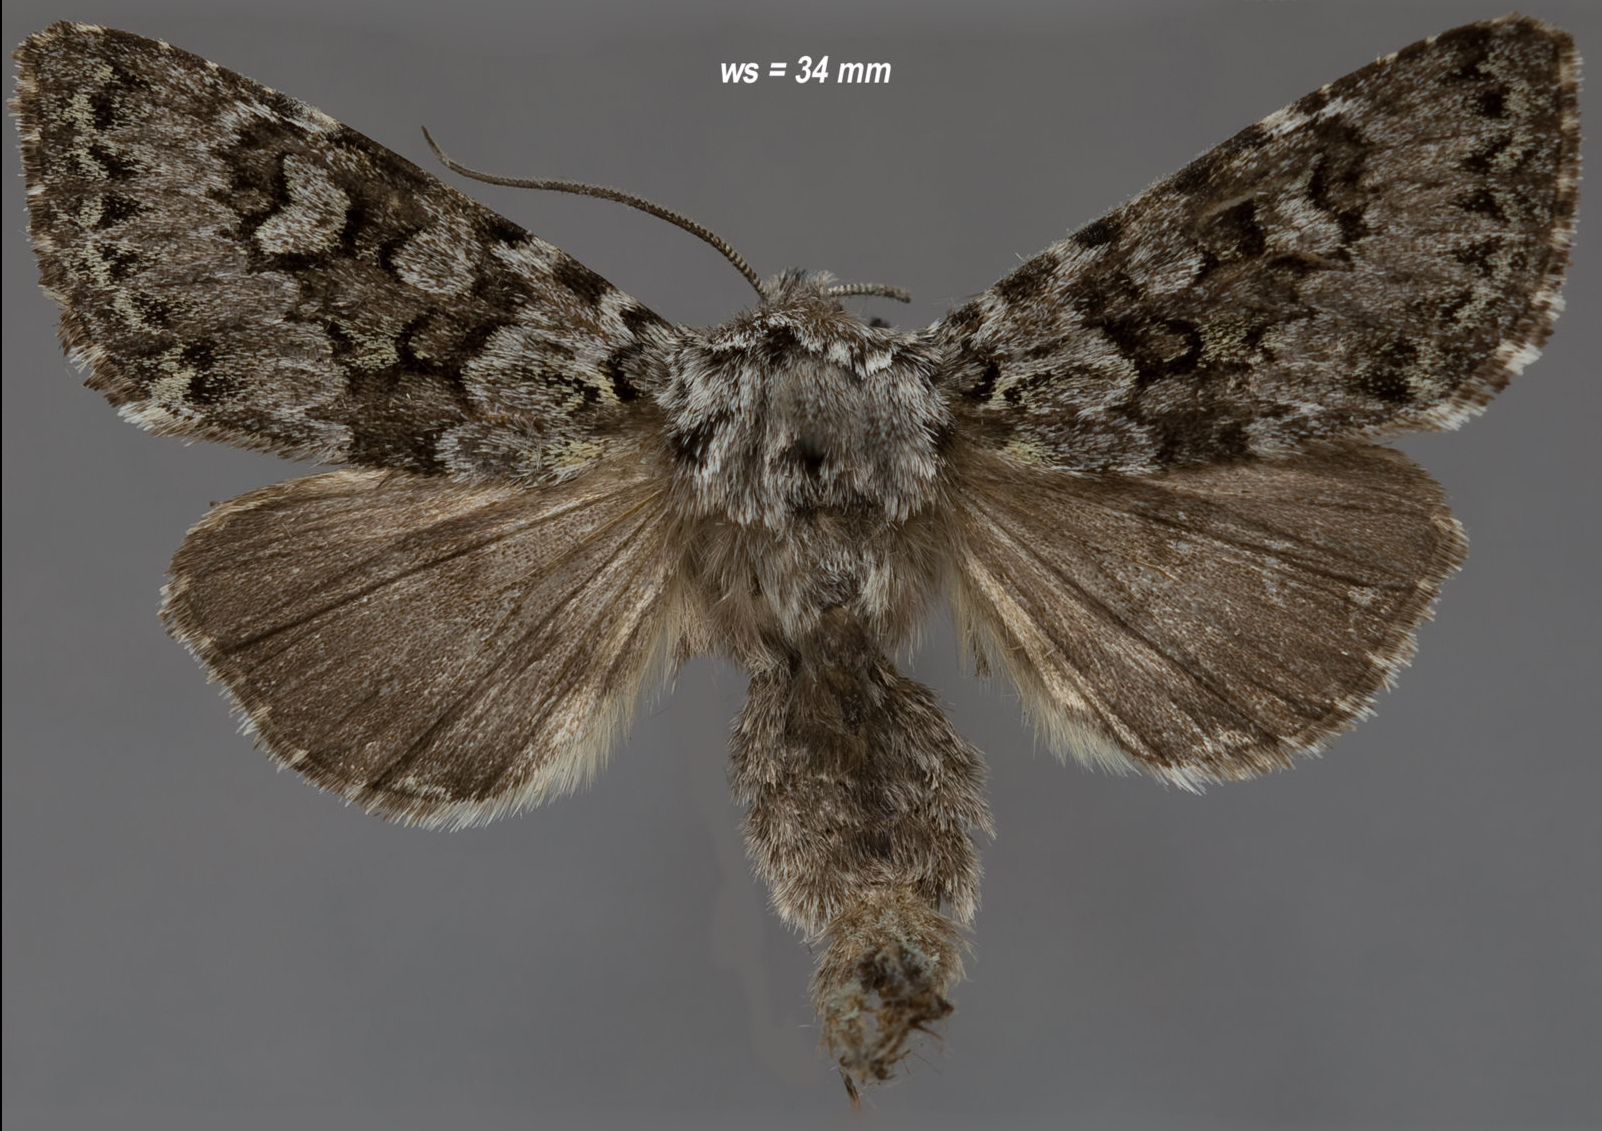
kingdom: Animalia
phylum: Arthropoda
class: Insecta
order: Lepidoptera
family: Noctuidae
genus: Lasionycta
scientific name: Lasionycta mutilata
